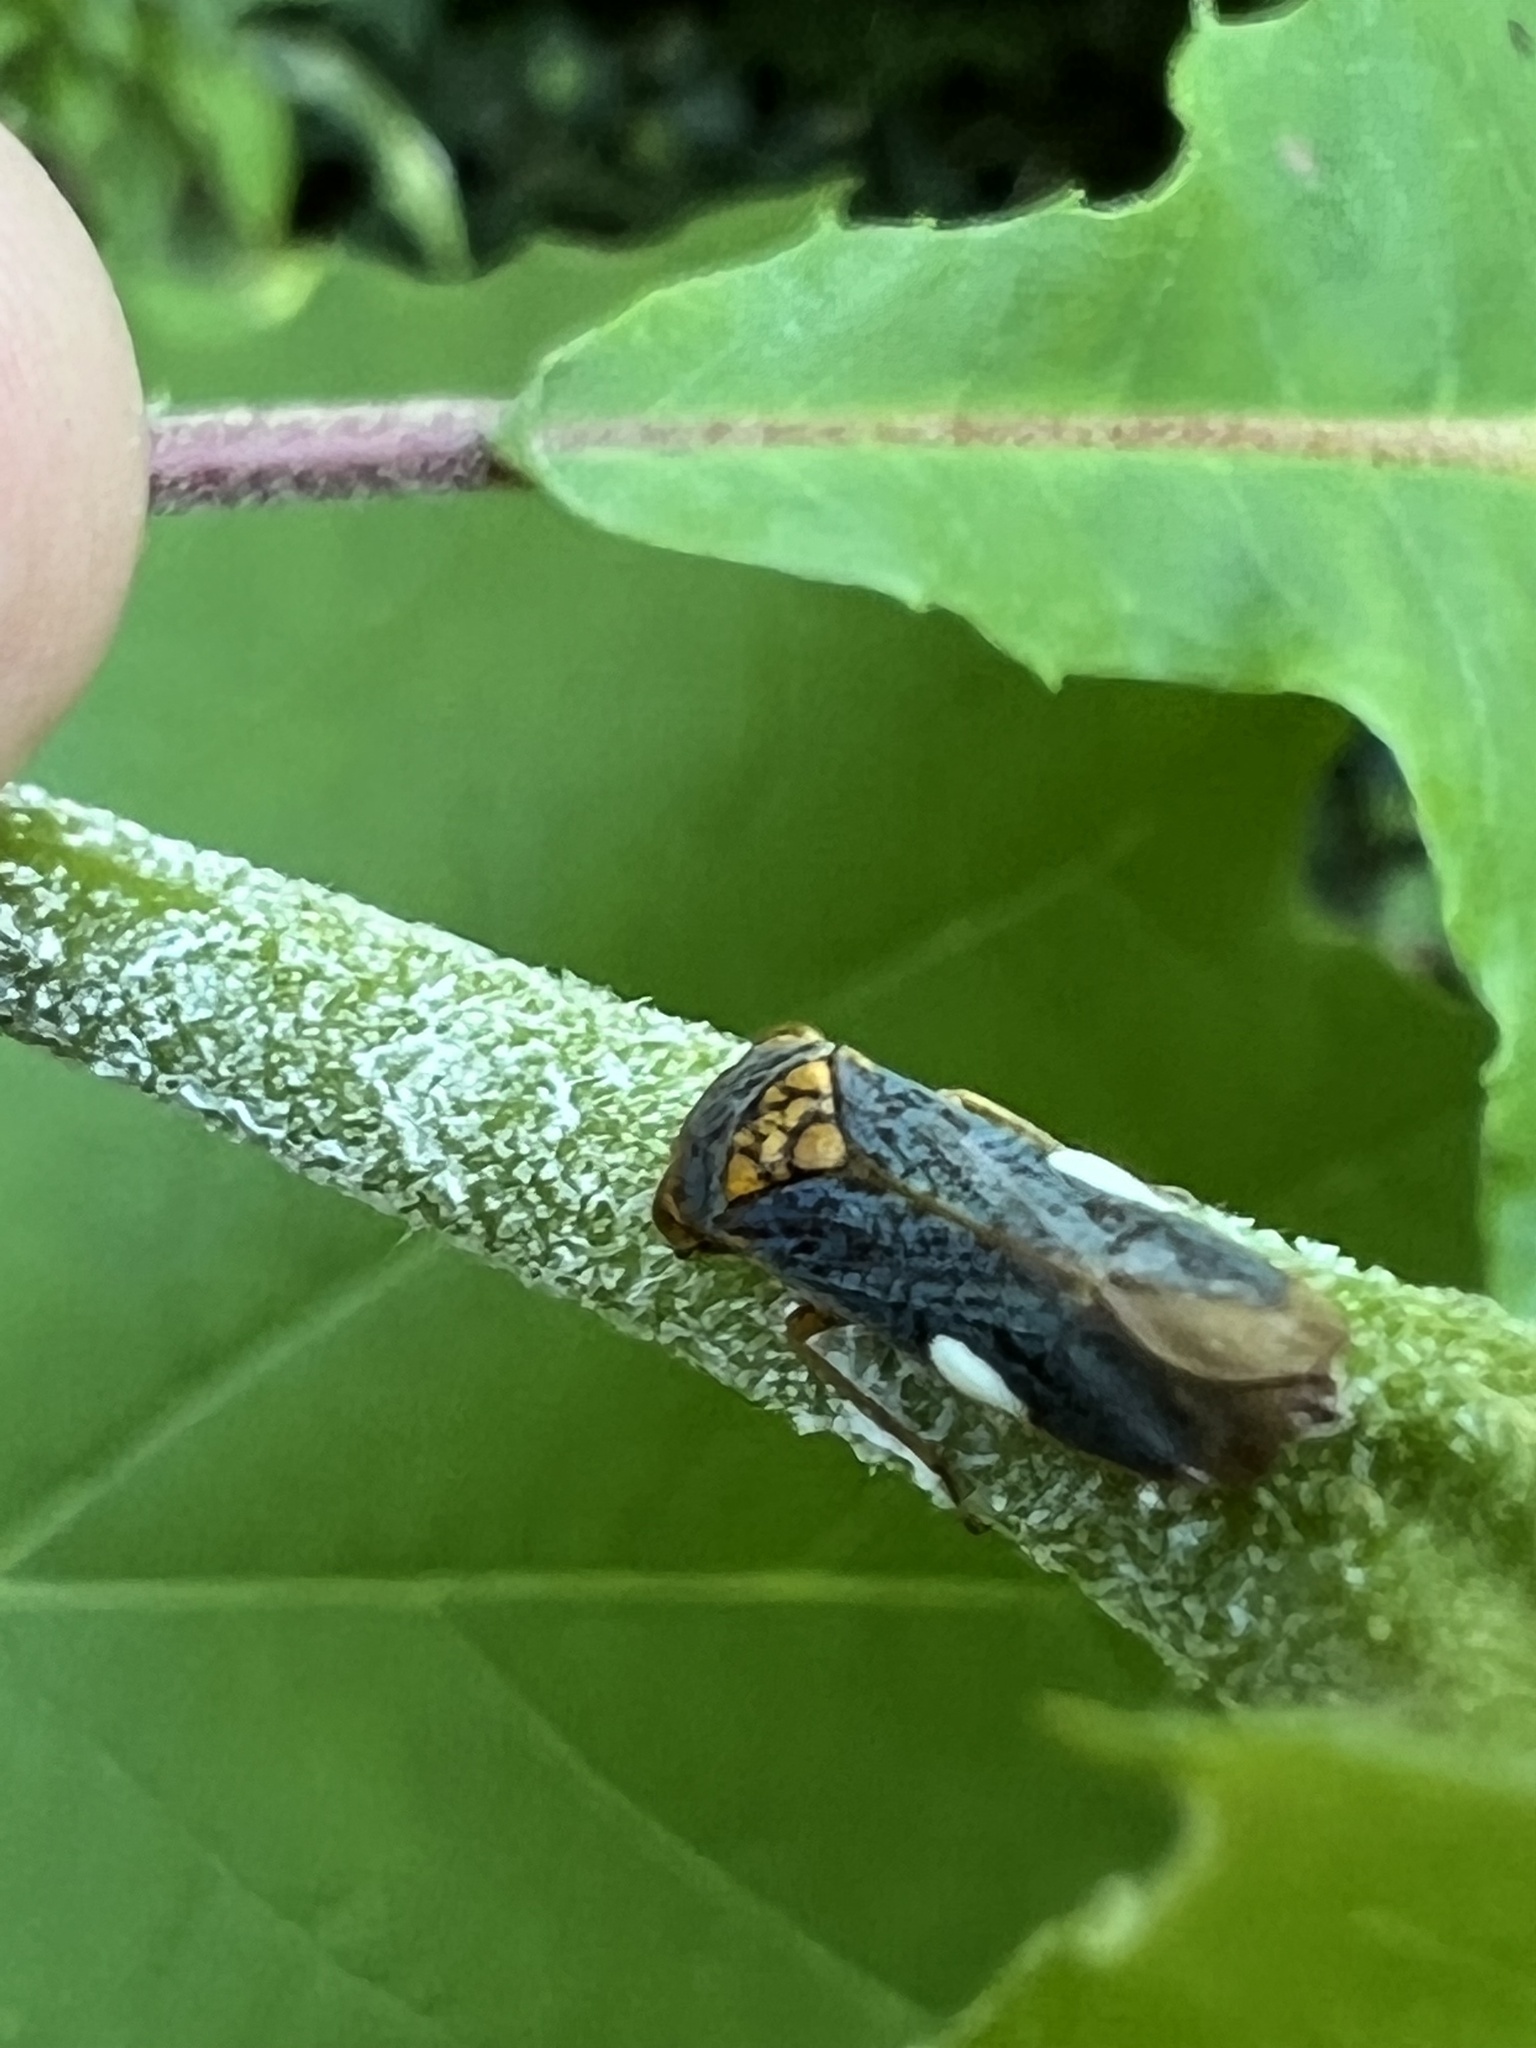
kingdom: Animalia
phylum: Arthropoda
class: Insecta
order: Hemiptera
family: Cicadellidae
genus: Oncometopia
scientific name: Oncometopia orbona
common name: Broad-headed sharpshooter
